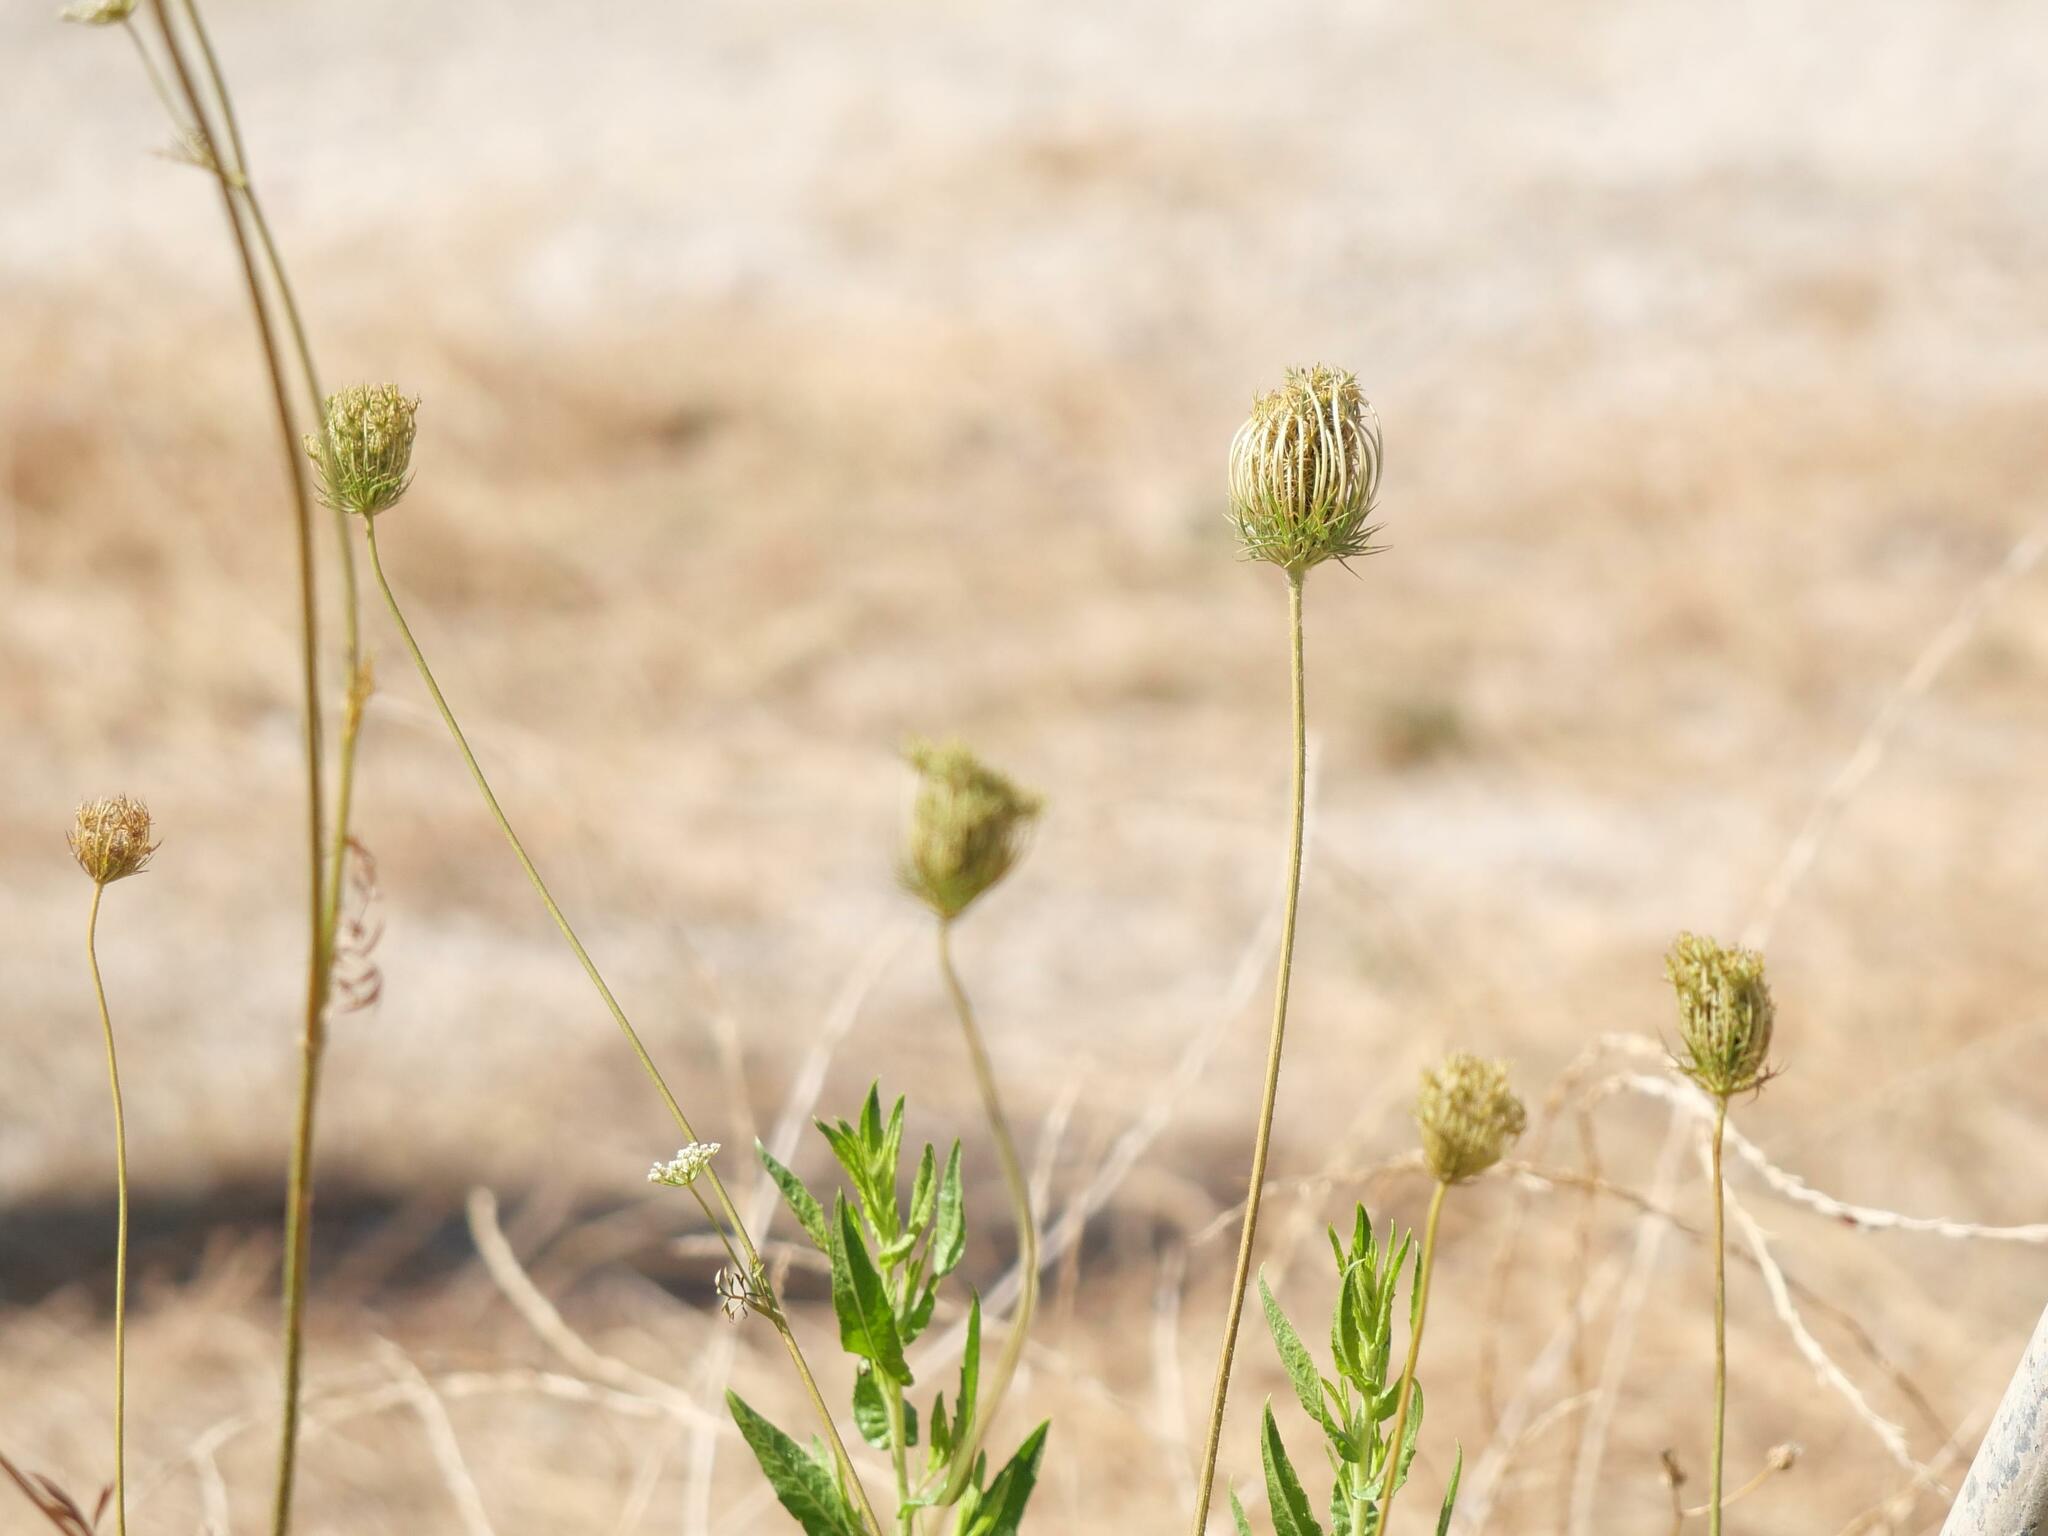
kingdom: Plantae
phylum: Tracheophyta
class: Magnoliopsida
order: Apiales
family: Apiaceae
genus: Daucus
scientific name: Daucus carota
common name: Wild carrot
